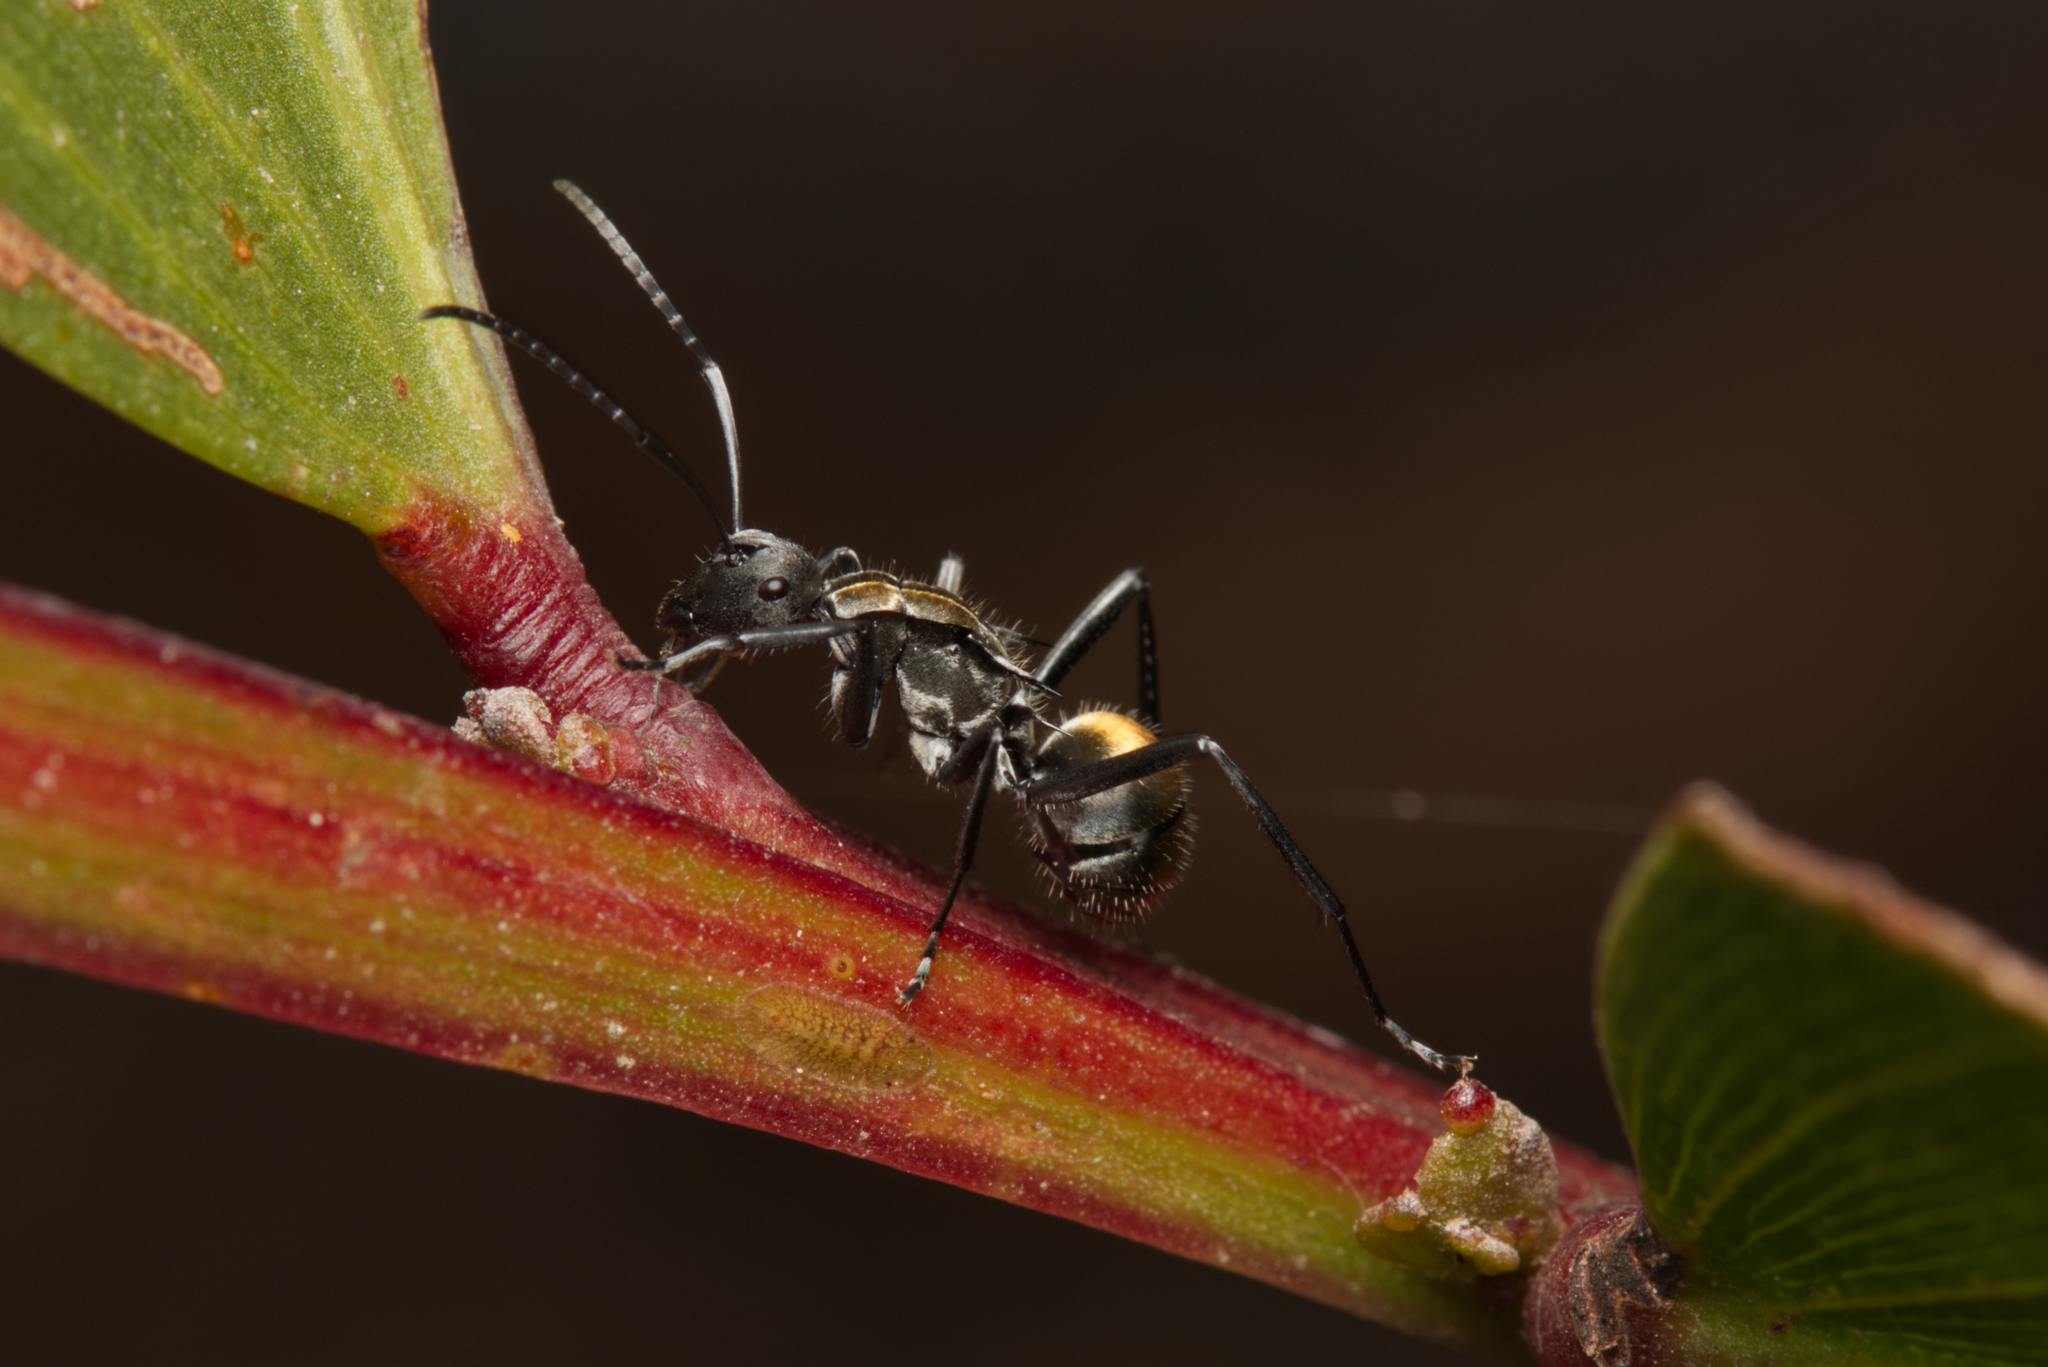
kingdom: Animalia
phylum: Arthropoda
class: Insecta
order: Hymenoptera
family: Formicidae
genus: Polyrhachis
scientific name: Polyrhachis ammon
